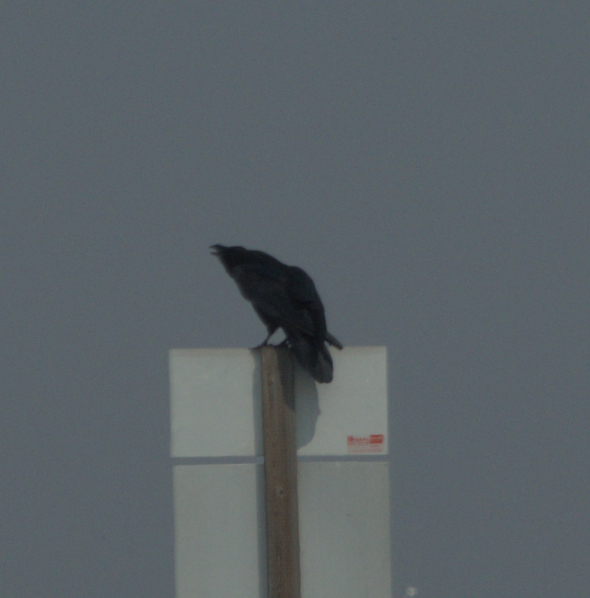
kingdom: Animalia
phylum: Chordata
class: Aves
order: Passeriformes
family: Corvidae
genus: Corvus
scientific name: Corvus corax
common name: Common raven
